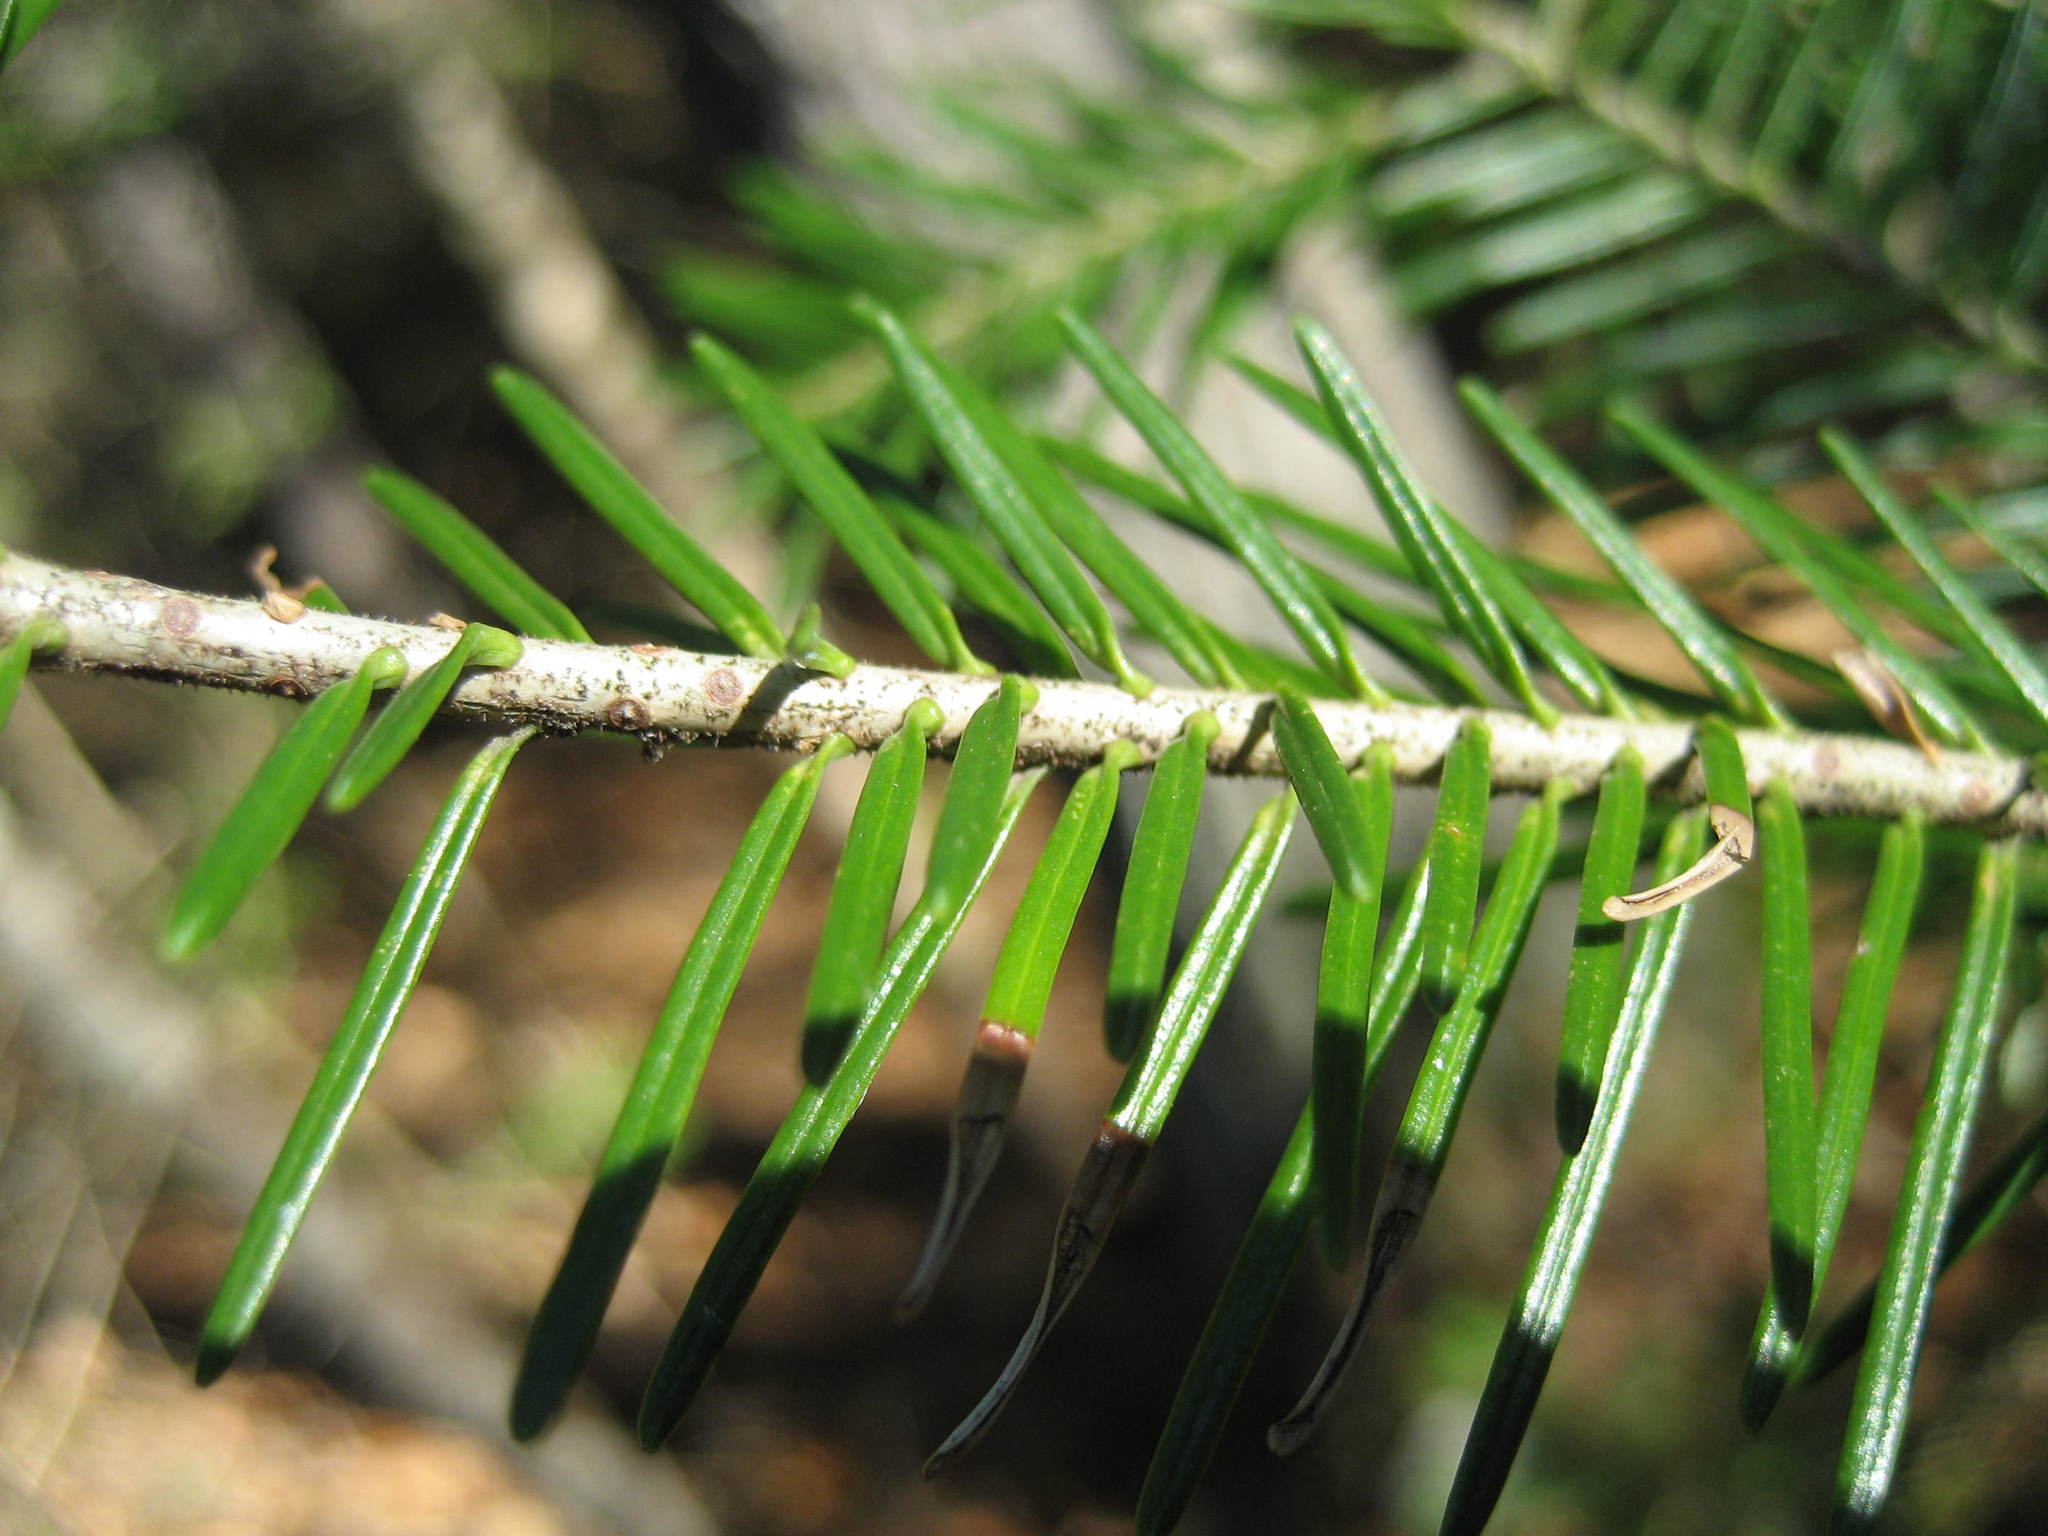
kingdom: Plantae
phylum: Tracheophyta
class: Pinopsida
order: Pinales
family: Pinaceae
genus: Abies
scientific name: Abies balsamea
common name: Balsam fir
